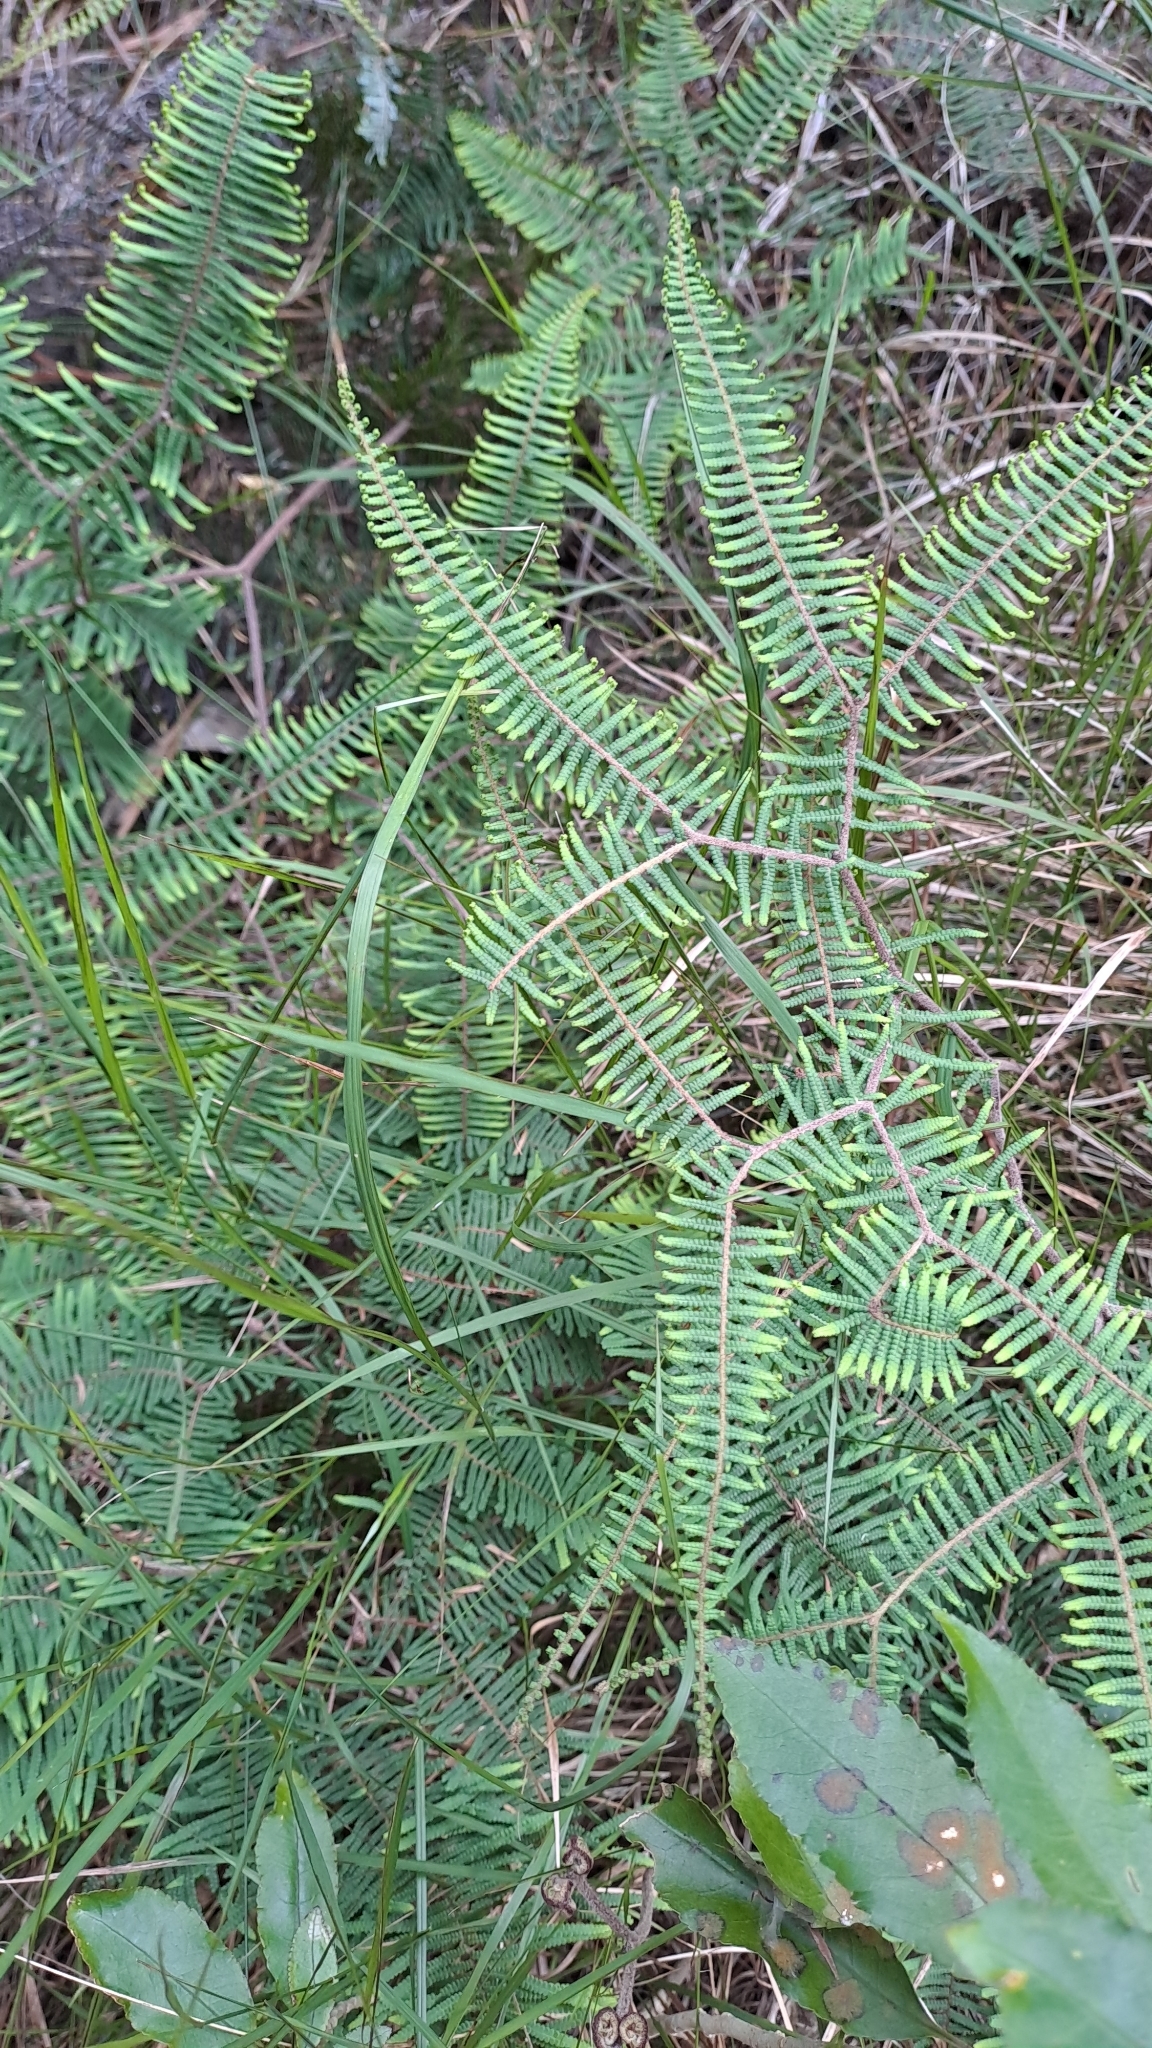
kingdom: Plantae
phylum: Tracheophyta
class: Polypodiopsida
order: Gleicheniales
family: Gleicheniaceae
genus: Gleichenia
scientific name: Gleichenia dicarpa
